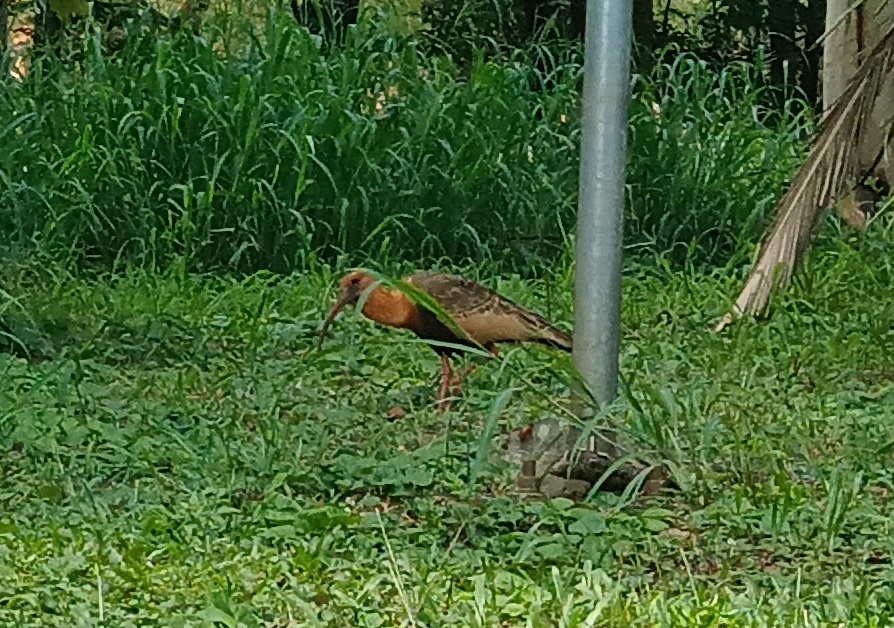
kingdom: Animalia
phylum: Chordata
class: Aves
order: Pelecaniformes
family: Threskiornithidae
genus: Theristicus
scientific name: Theristicus caudatus
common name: Buff-necked ibis
